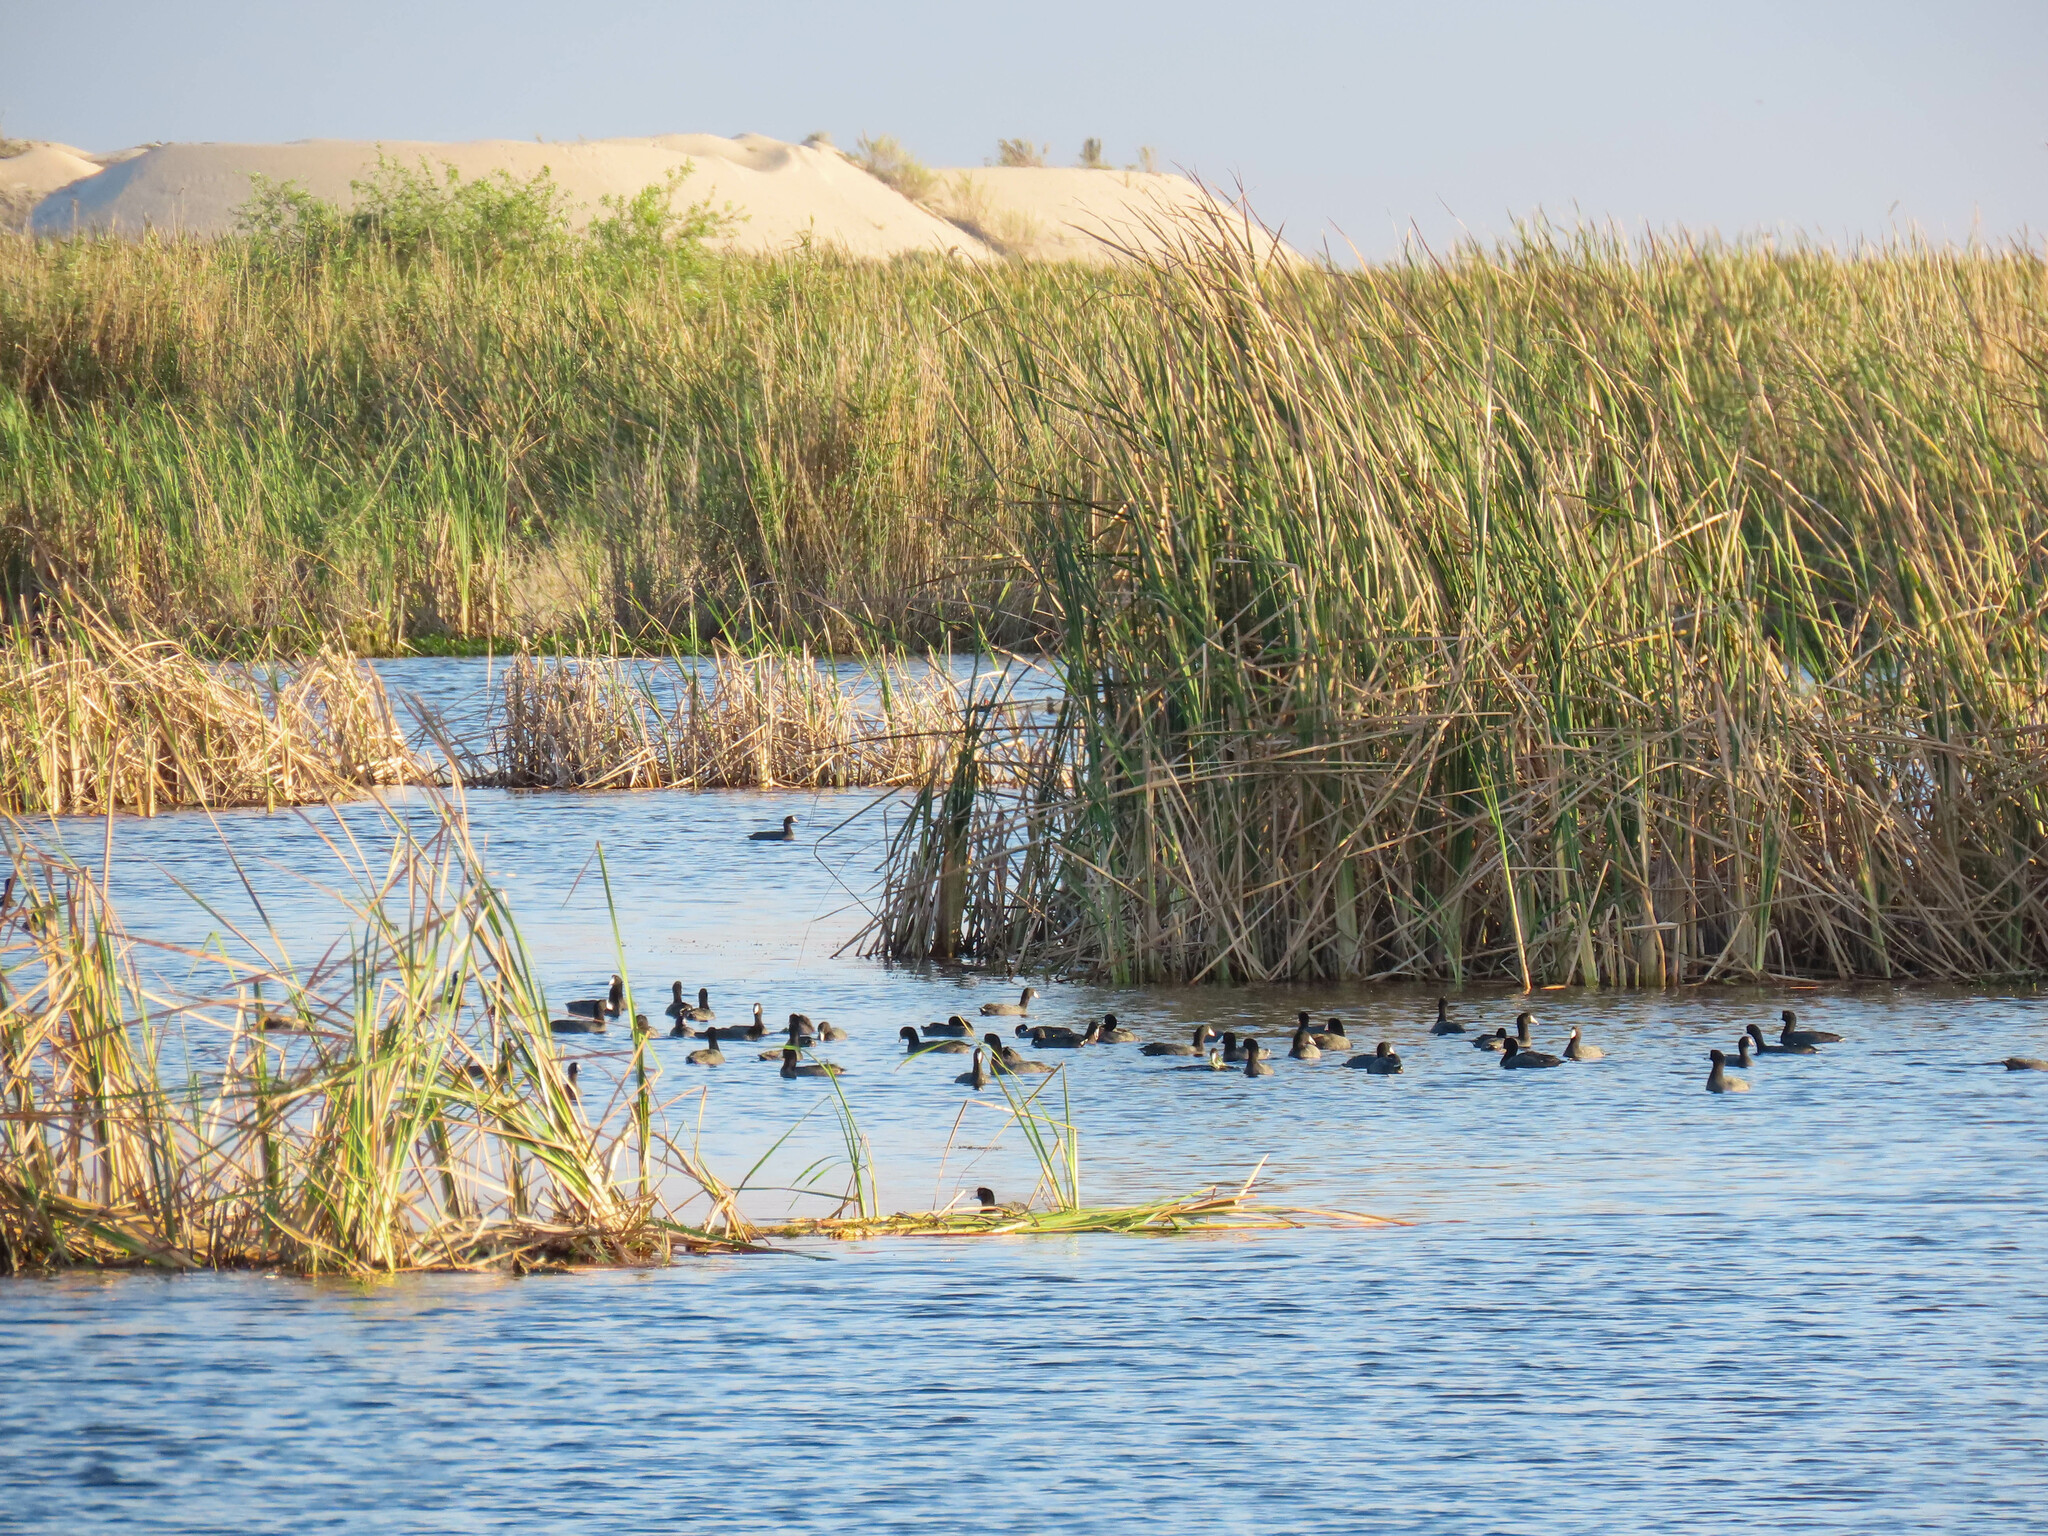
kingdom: Animalia
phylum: Chordata
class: Aves
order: Gruiformes
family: Rallidae
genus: Fulica
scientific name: Fulica americana
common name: American coot
